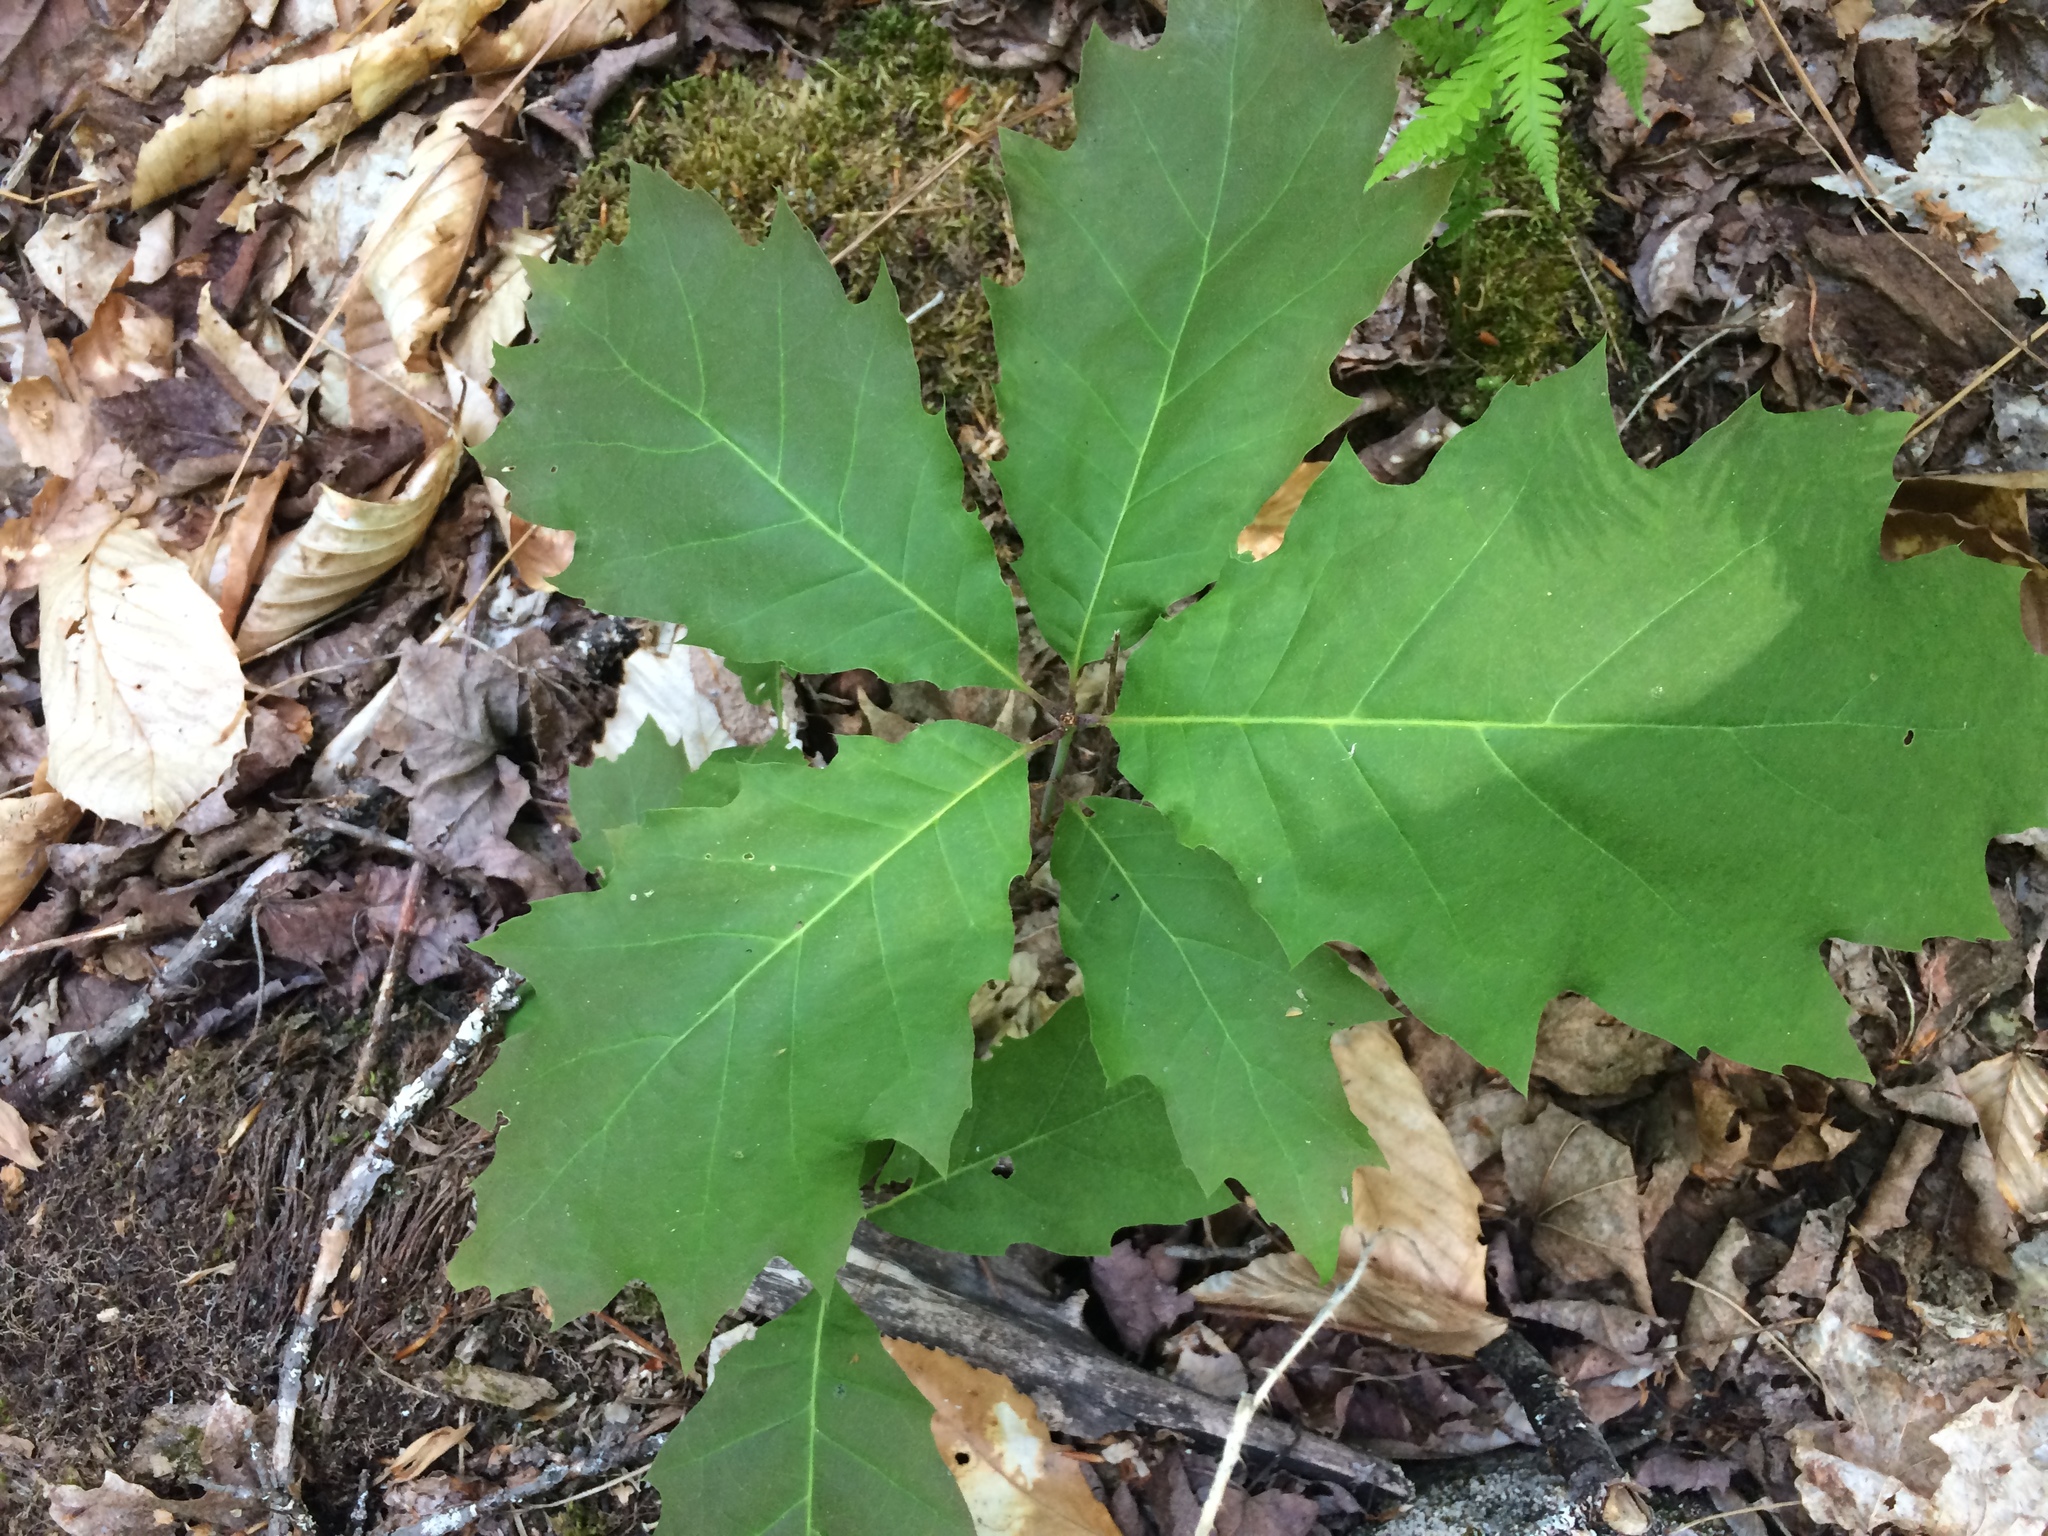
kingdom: Plantae
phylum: Tracheophyta
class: Magnoliopsida
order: Fagales
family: Fagaceae
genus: Quercus
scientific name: Quercus rubra
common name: Red oak
